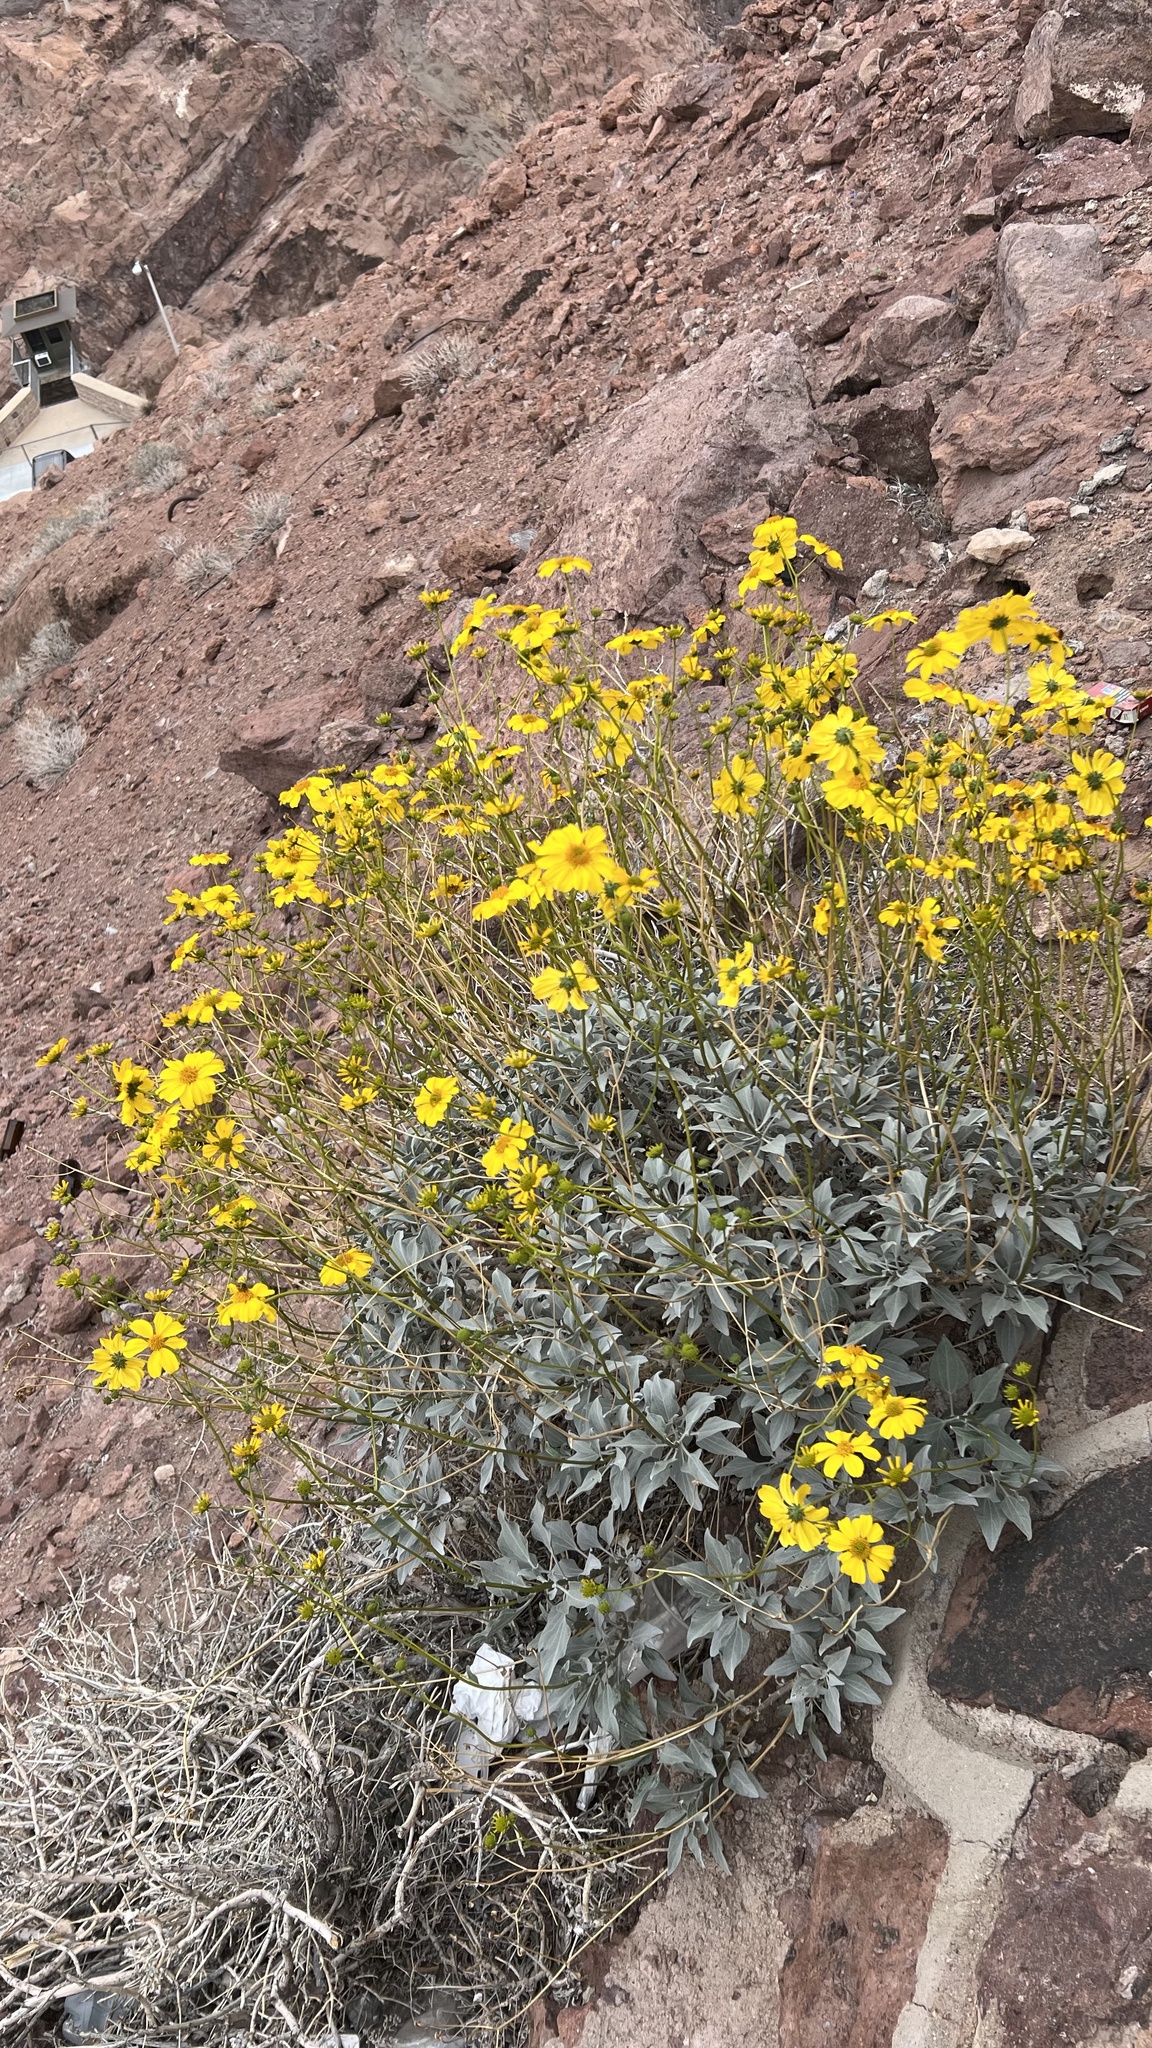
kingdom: Plantae
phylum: Tracheophyta
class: Magnoliopsida
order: Asterales
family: Asteraceae
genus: Encelia
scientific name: Encelia farinosa
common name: Brittlebush
